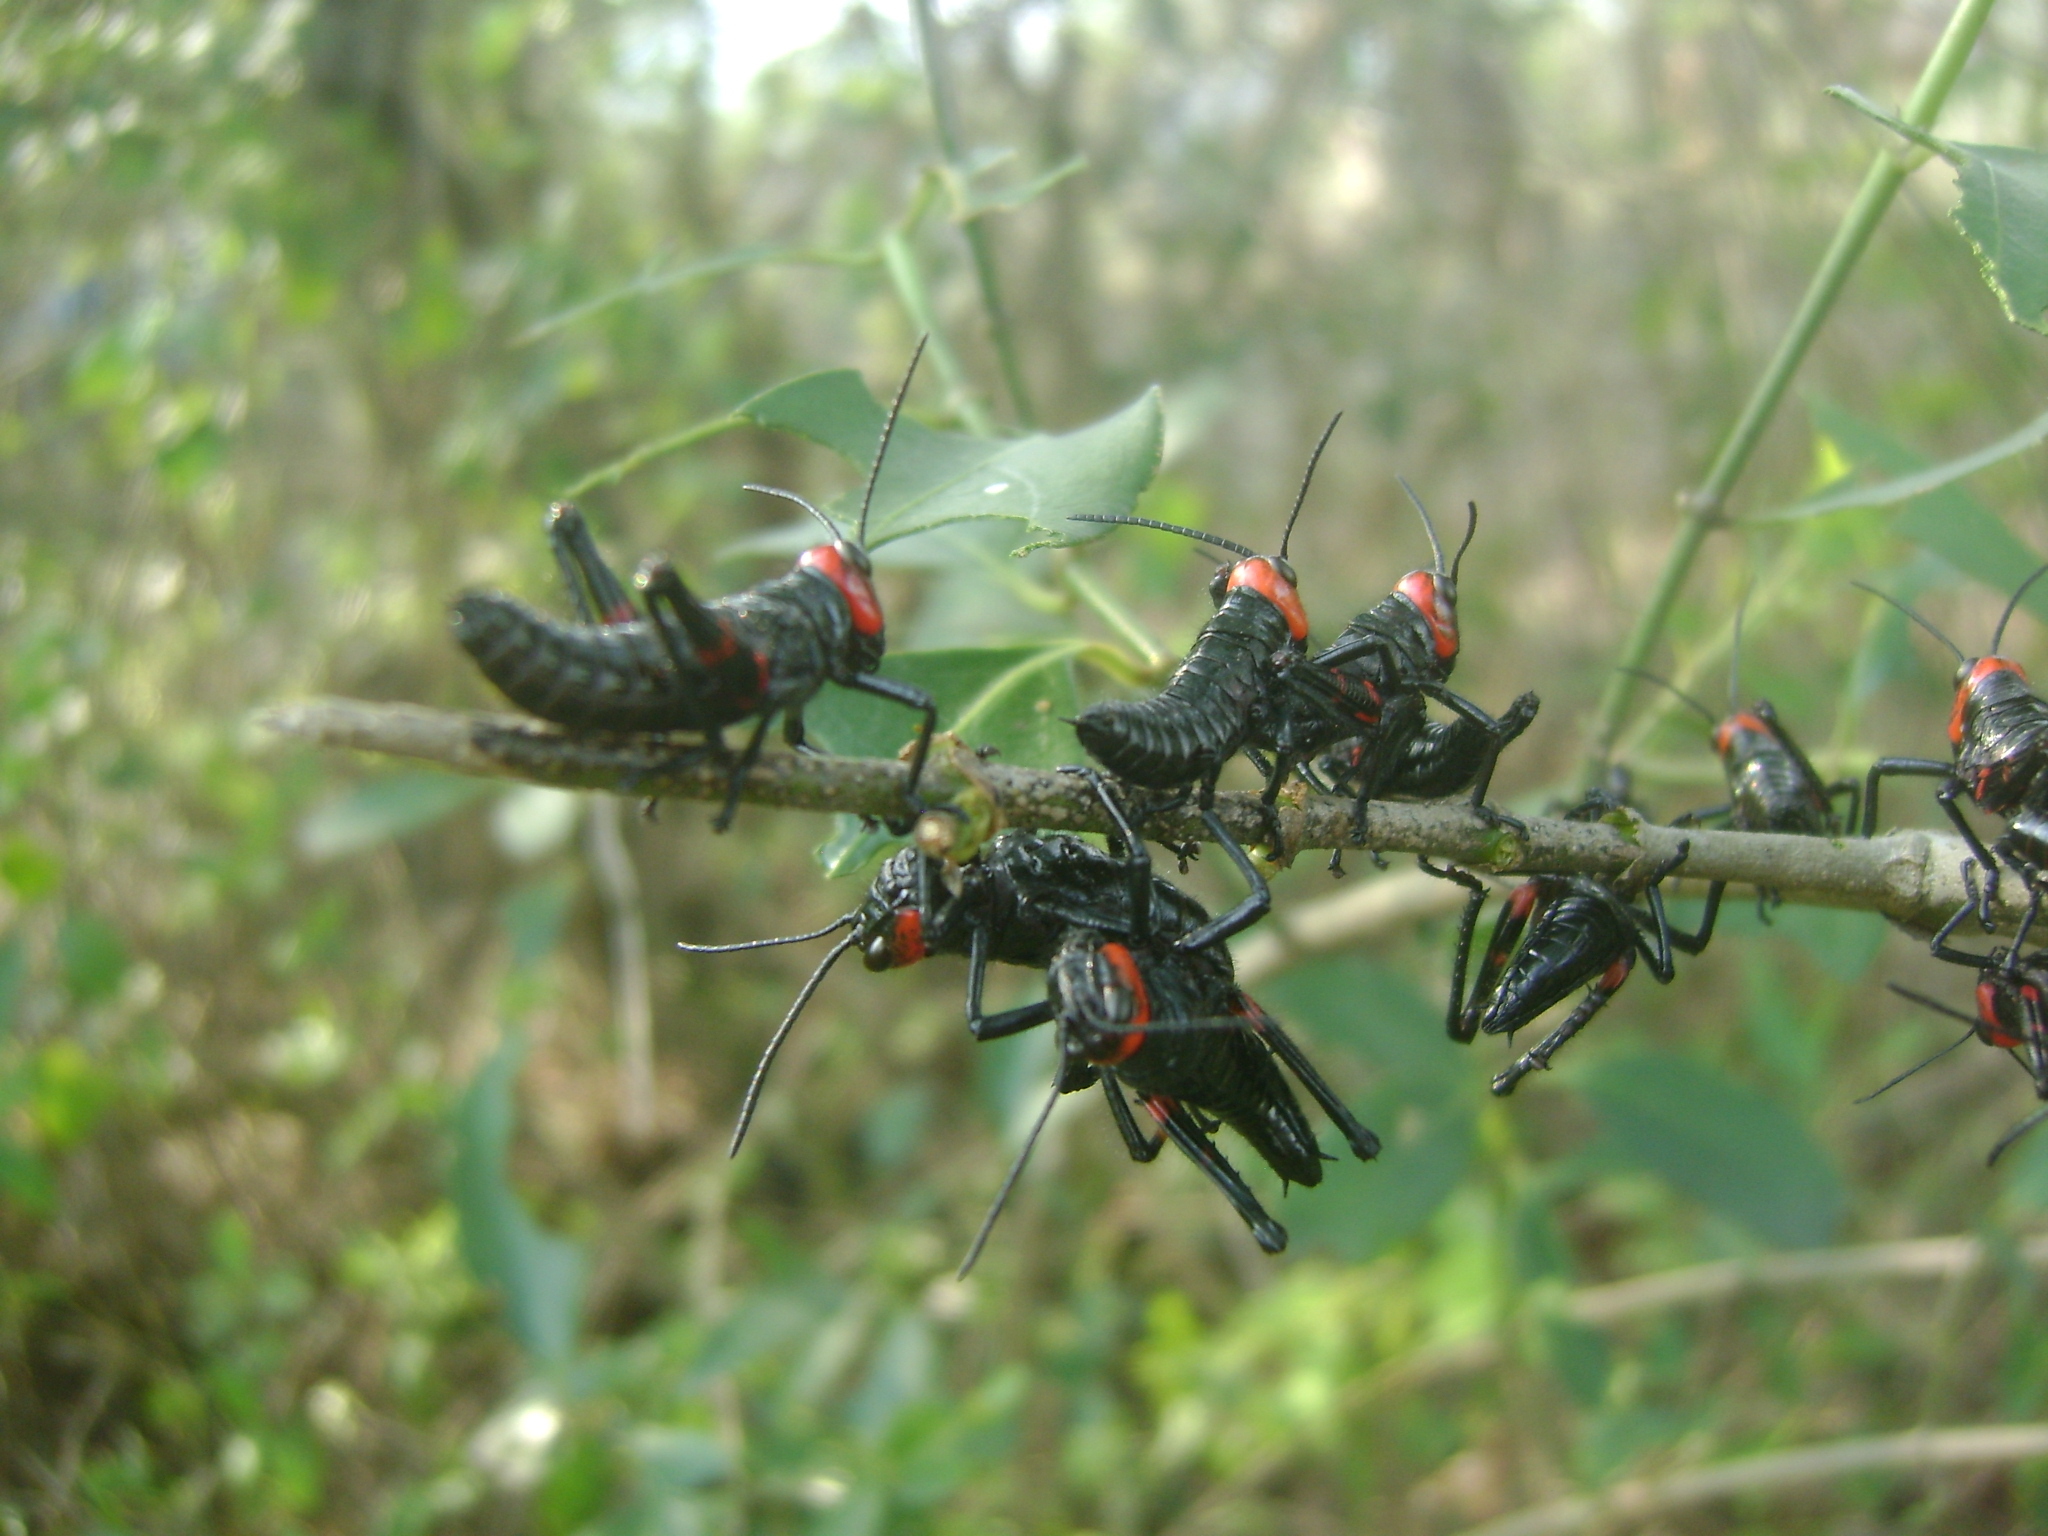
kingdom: Animalia
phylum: Arthropoda
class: Insecta
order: Orthoptera
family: Romaleidae
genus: Chromacris
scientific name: Chromacris colorata
